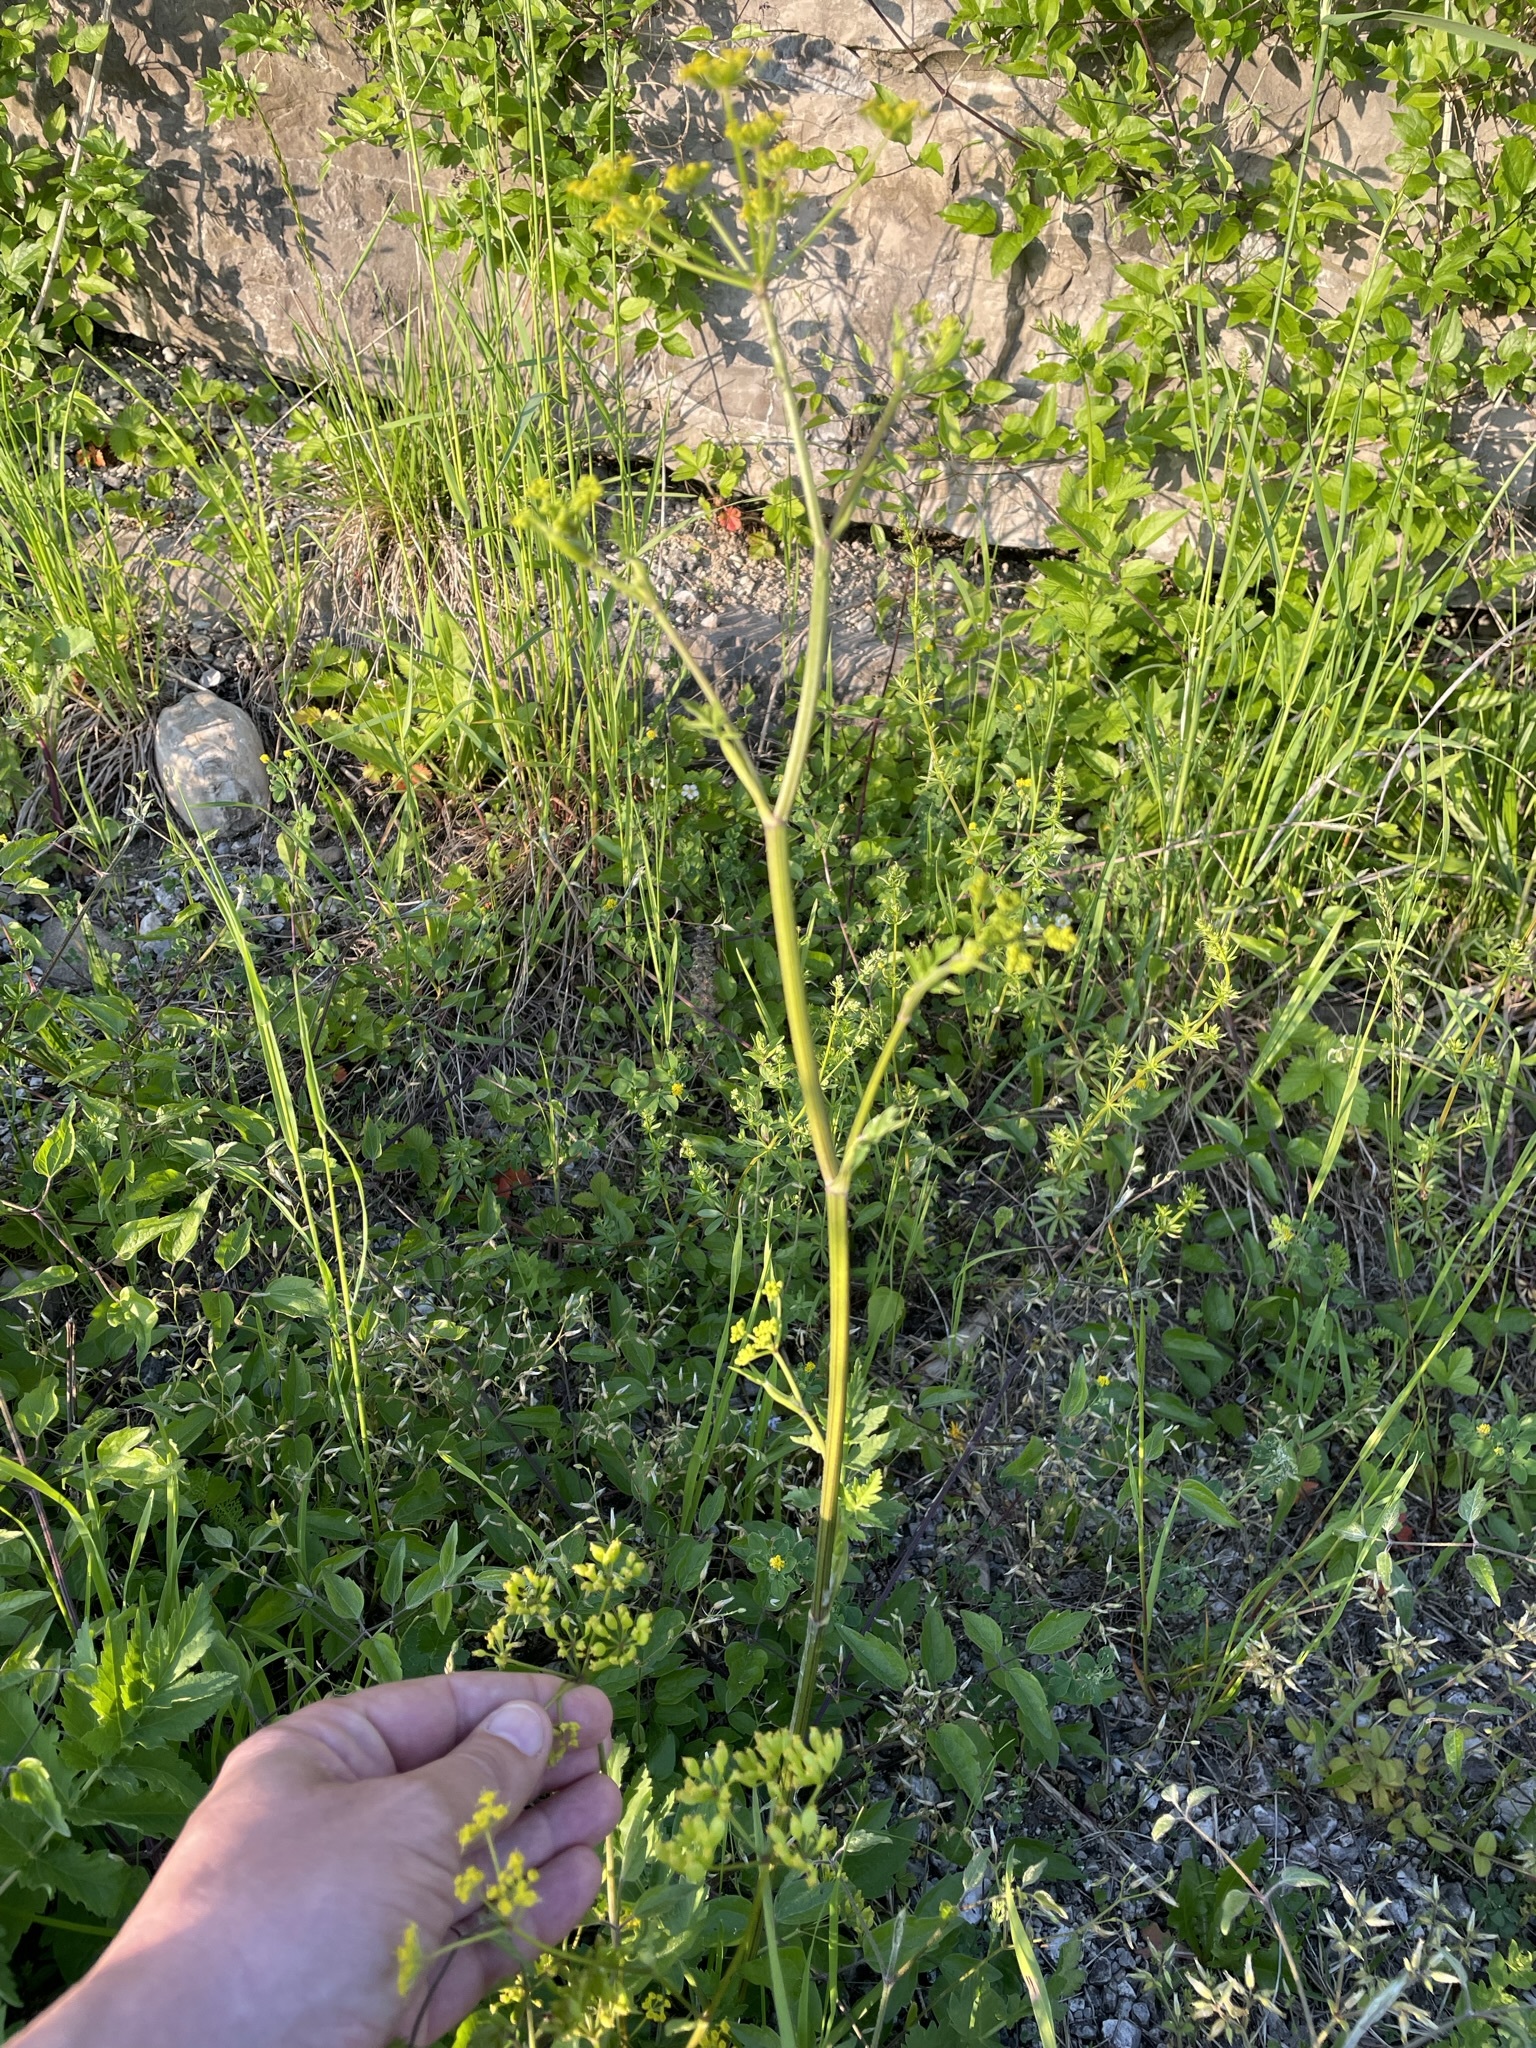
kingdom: Plantae
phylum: Tracheophyta
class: Magnoliopsida
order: Apiales
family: Apiaceae
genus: Pastinaca
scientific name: Pastinaca sativa
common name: Wild parsnip
